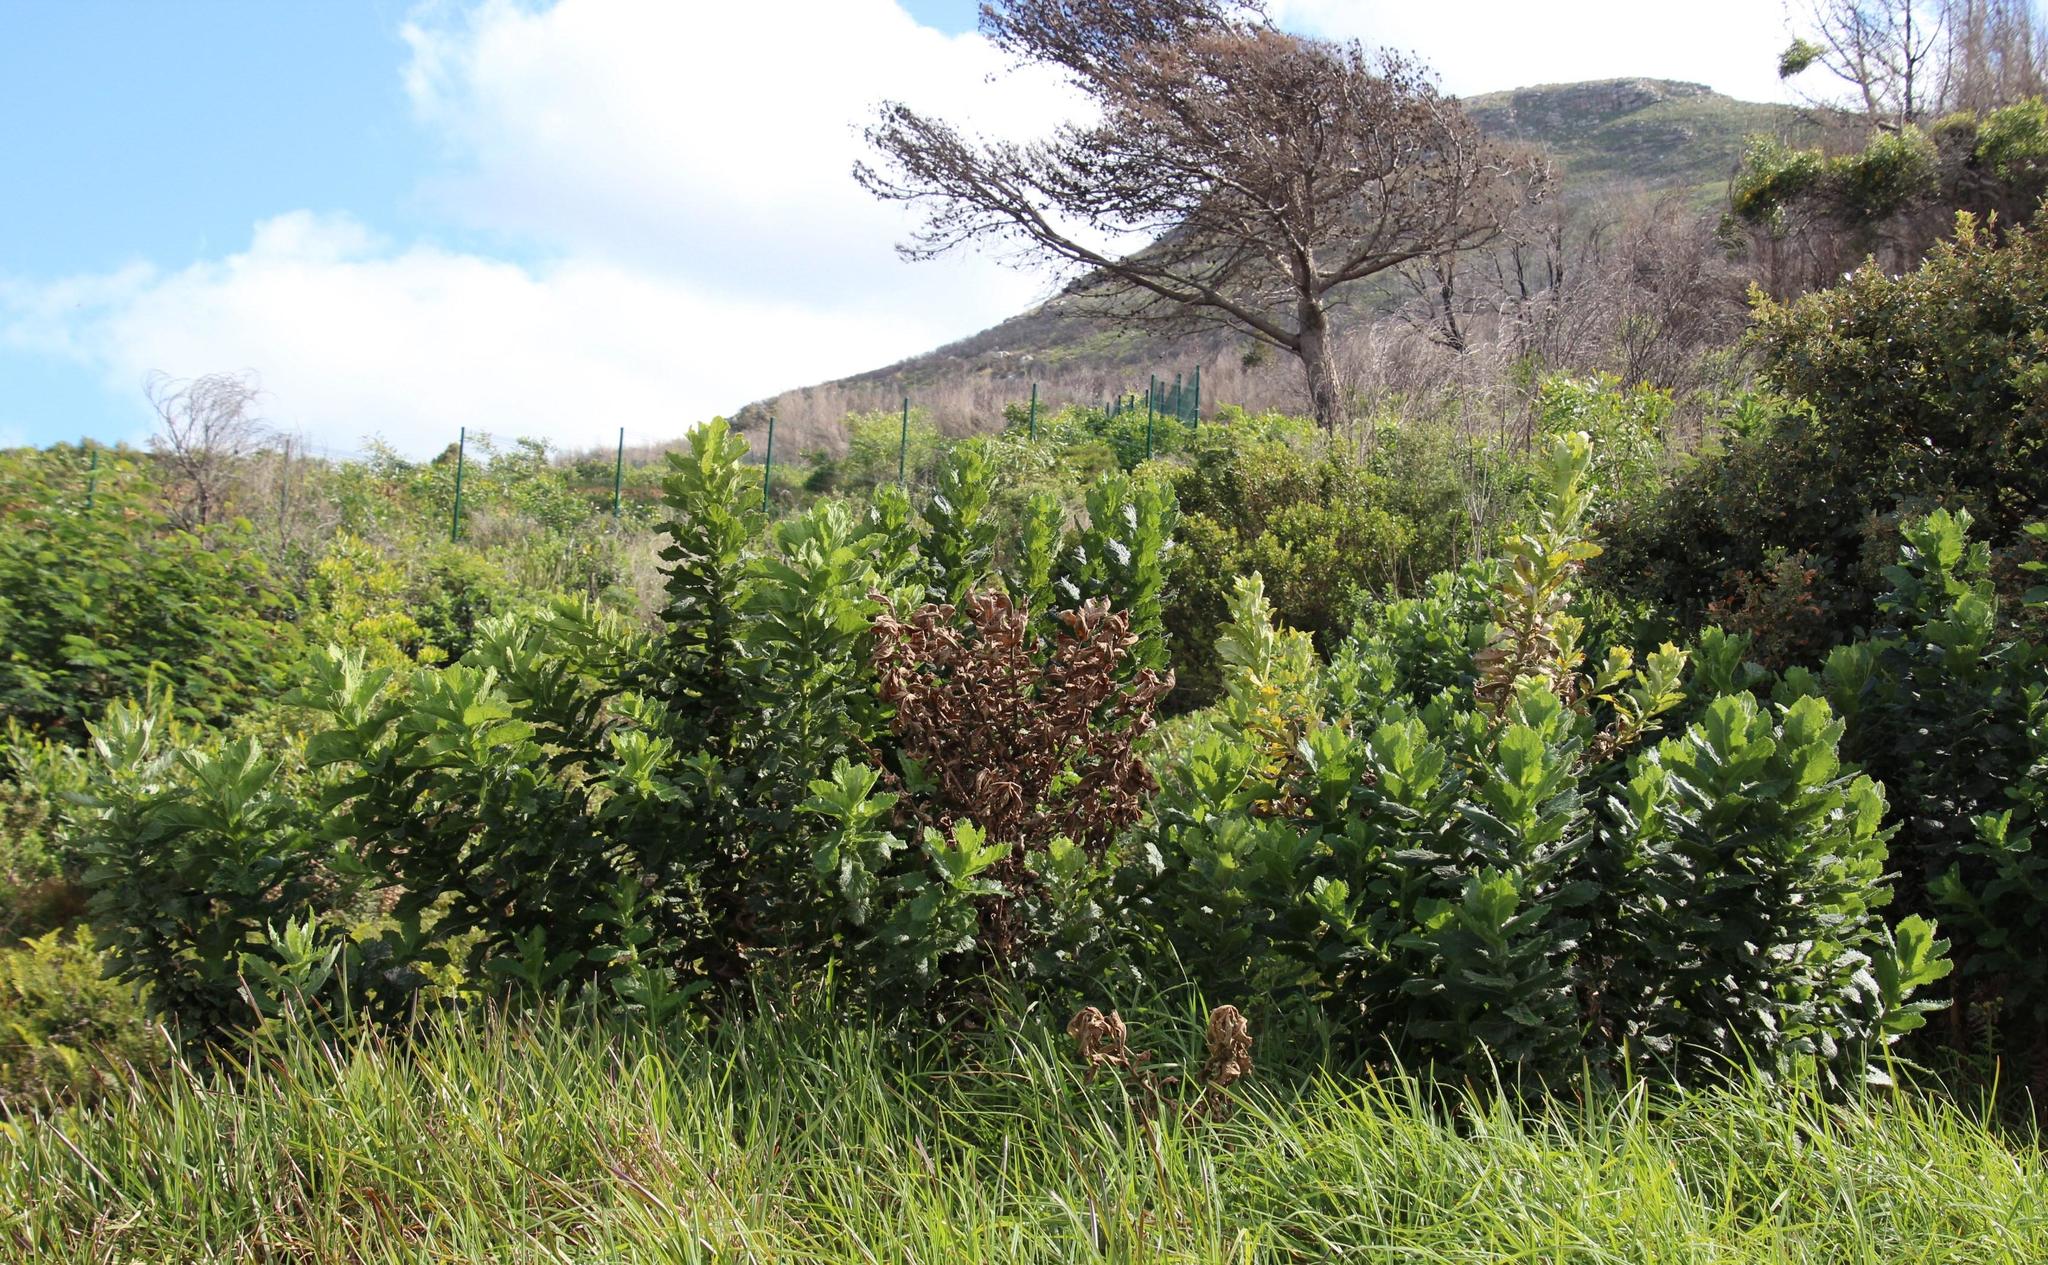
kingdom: Plantae
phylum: Tracheophyta
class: Magnoliopsida
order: Asterales
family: Asteraceae
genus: Senecio
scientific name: Senecio rigidus
